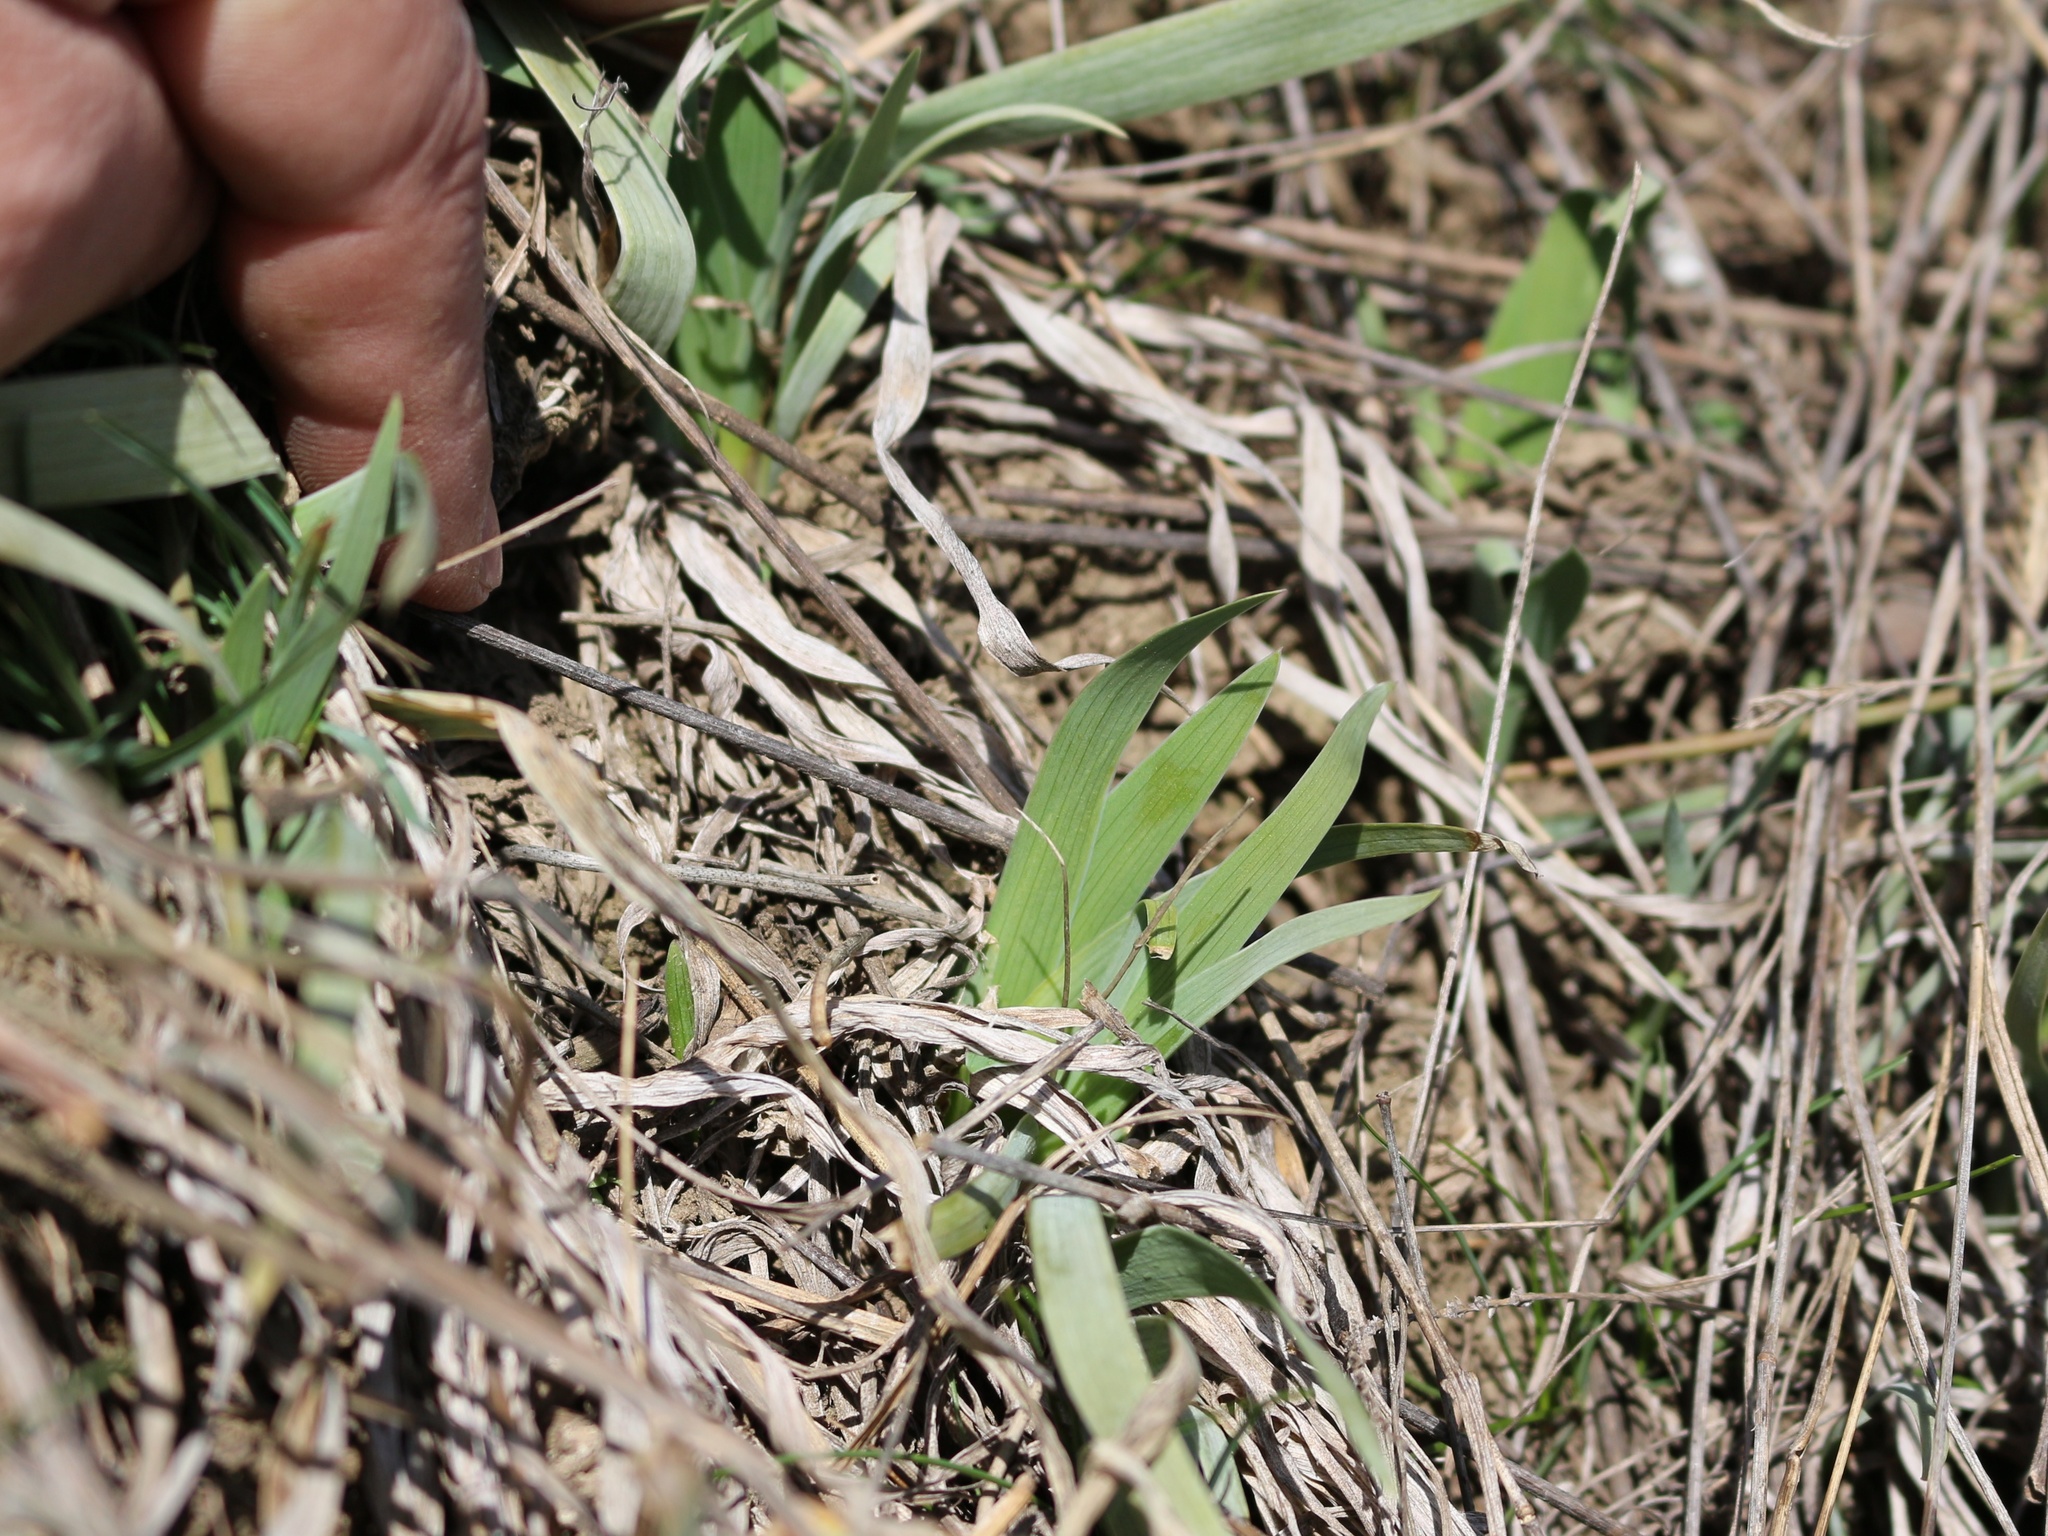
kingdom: Plantae
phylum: Tracheophyta
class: Liliopsida
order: Asparagales
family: Iridaceae
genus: Iris
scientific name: Iris pumila
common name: Dwarf iris
